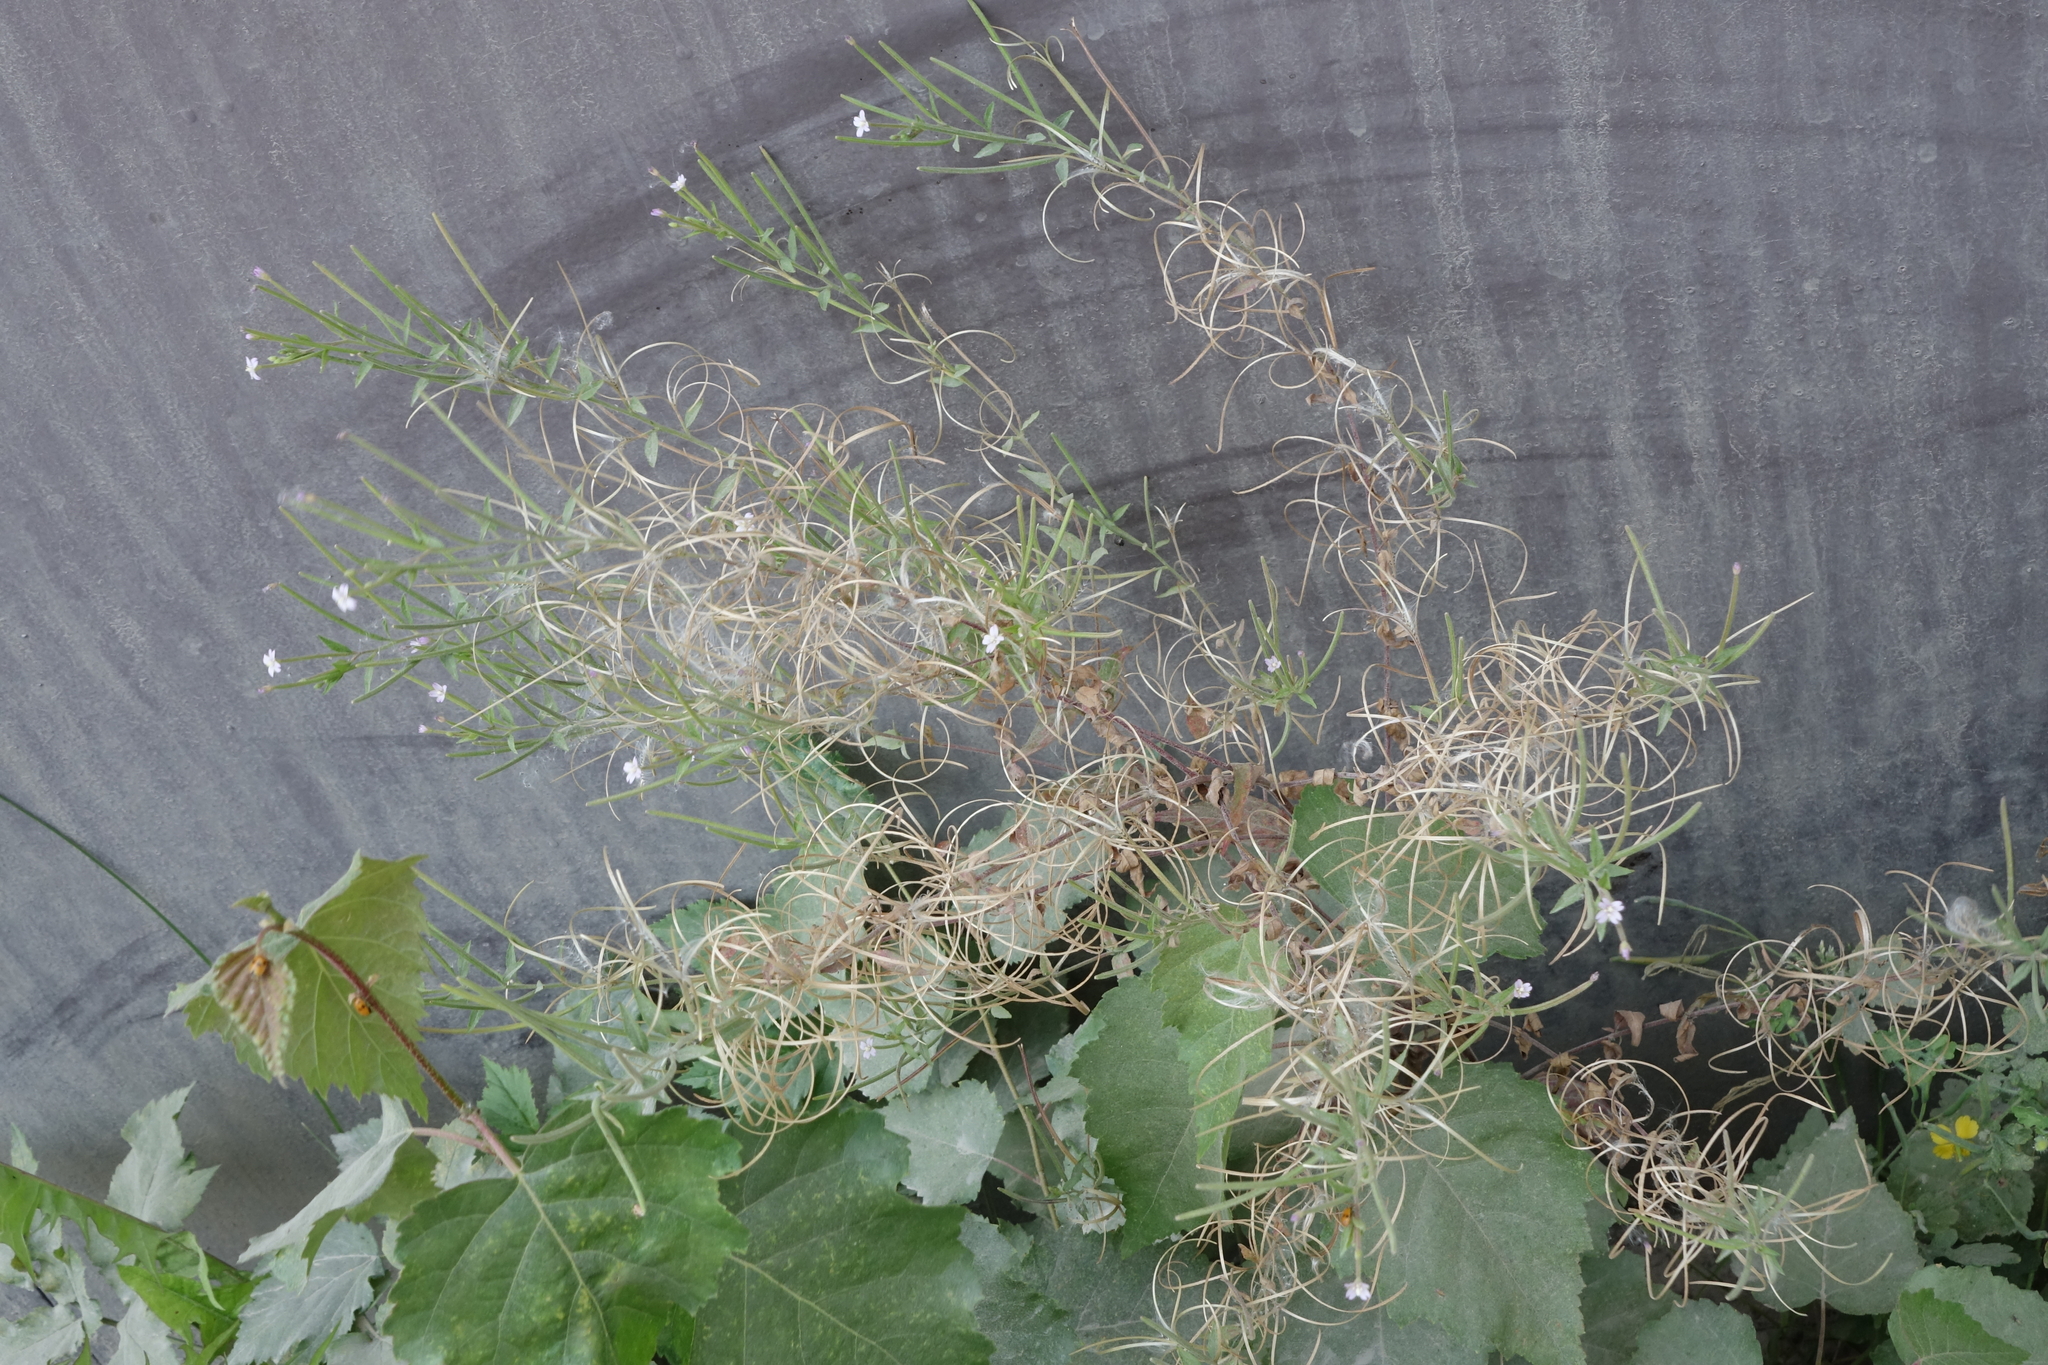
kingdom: Plantae
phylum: Tracheophyta
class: Magnoliopsida
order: Myrtales
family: Onagraceae
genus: Epilobium
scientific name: Epilobium ciliatum
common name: American willowherb
